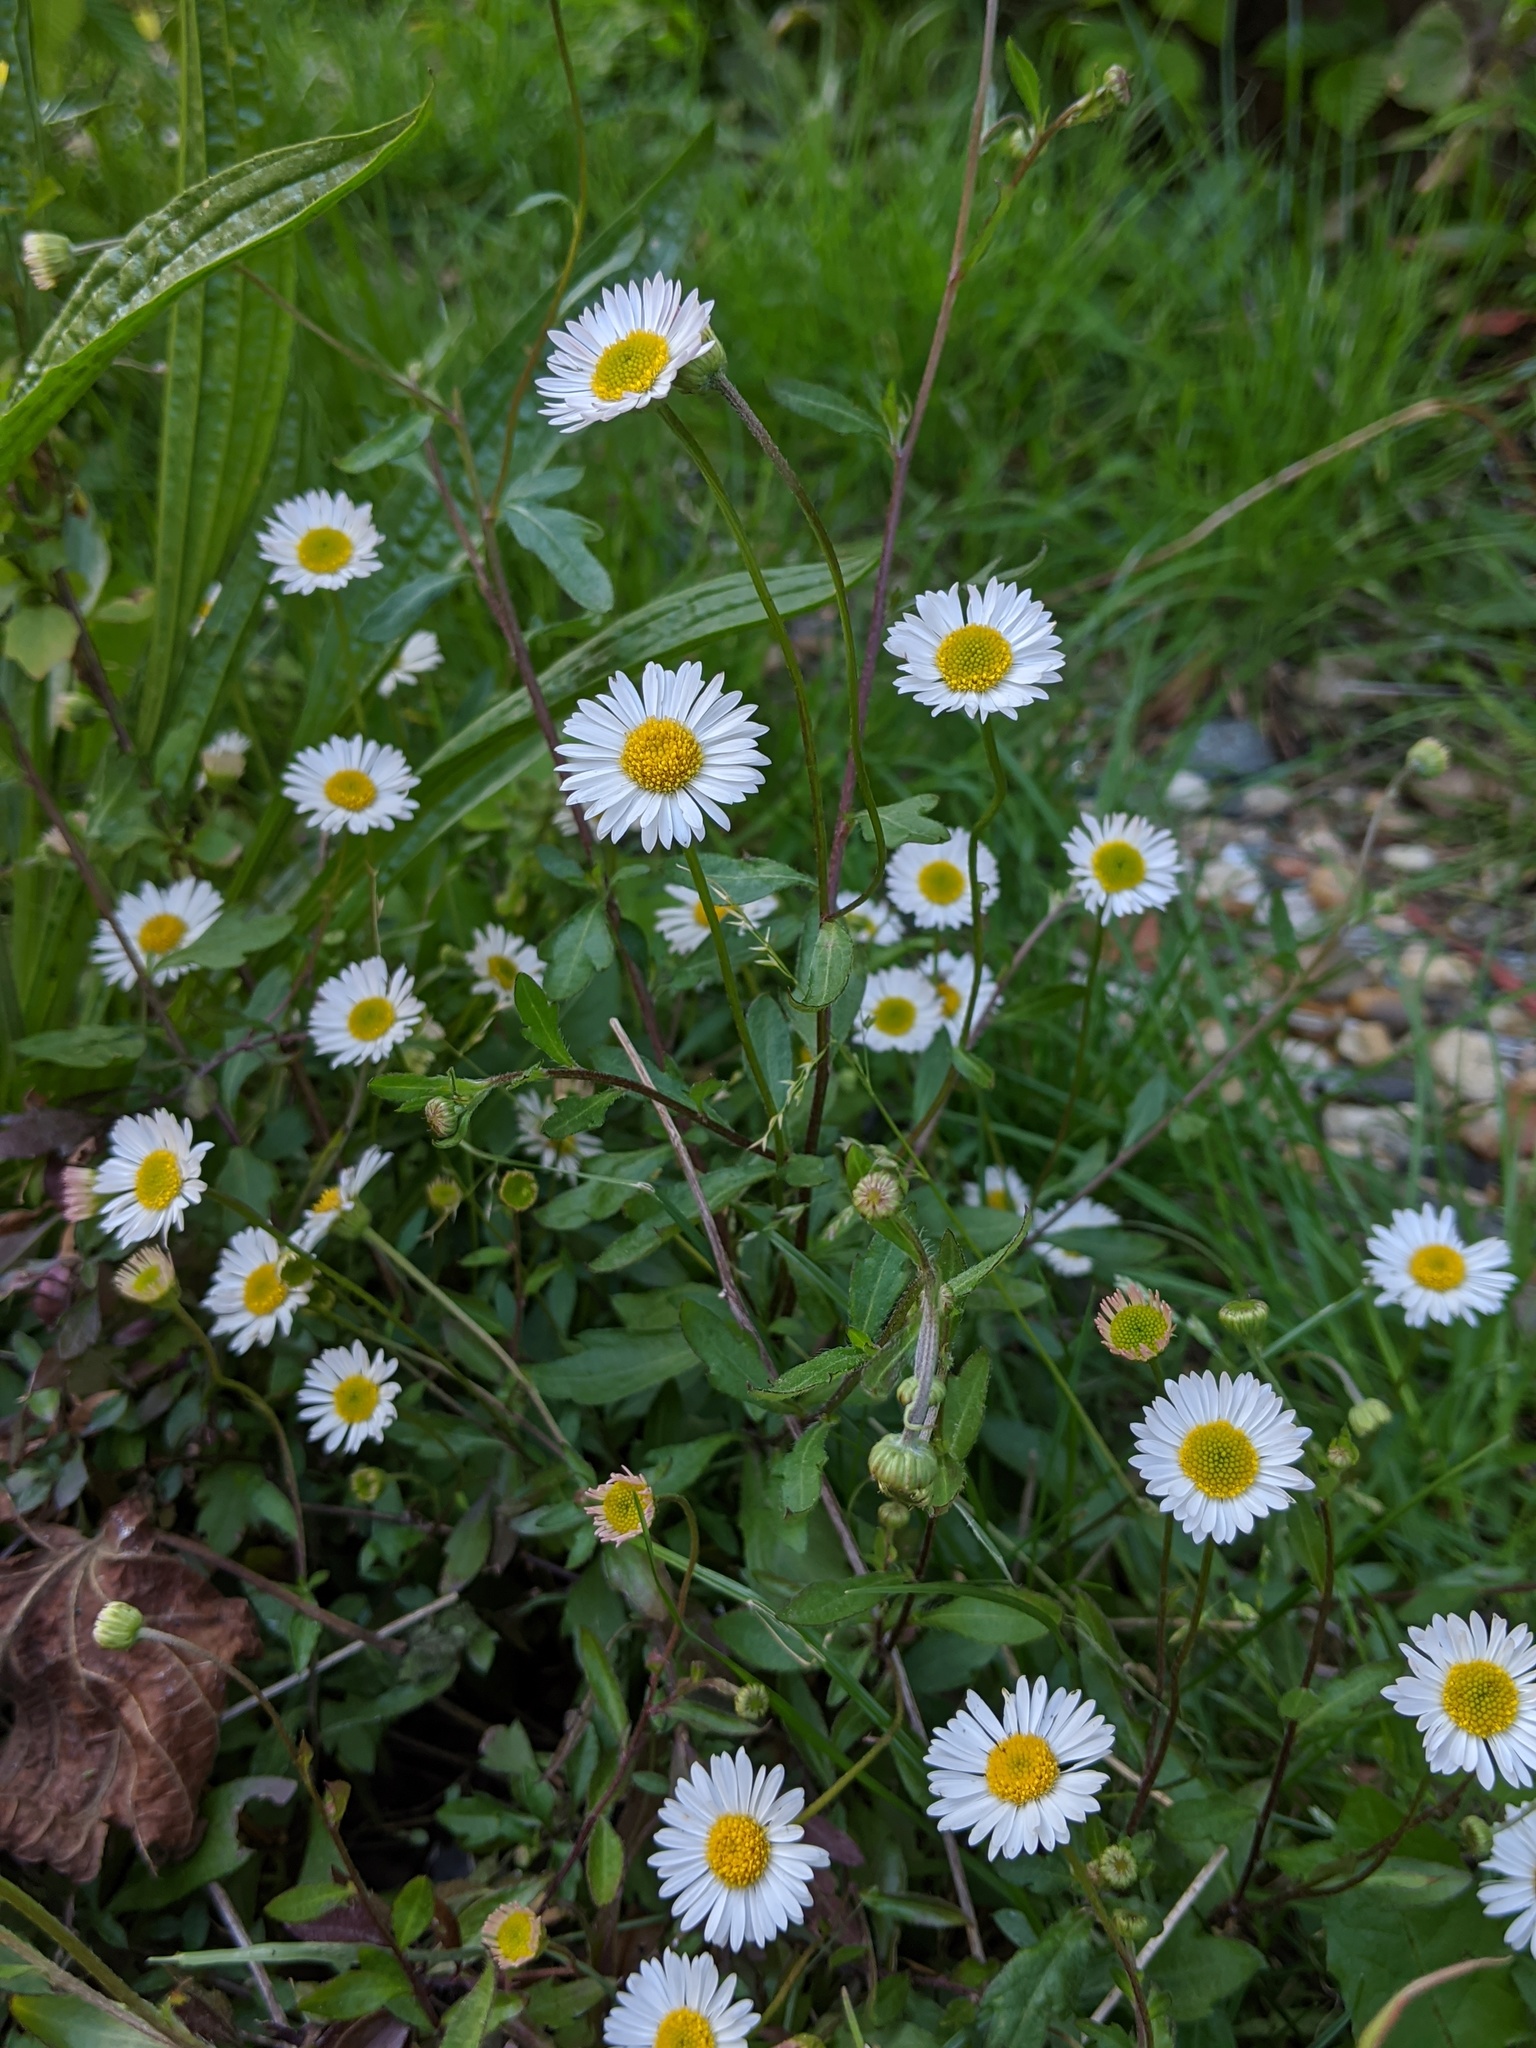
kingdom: Plantae
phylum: Tracheophyta
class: Magnoliopsida
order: Asterales
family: Asteraceae
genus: Erigeron
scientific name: Erigeron karvinskianus
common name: Mexican fleabane
